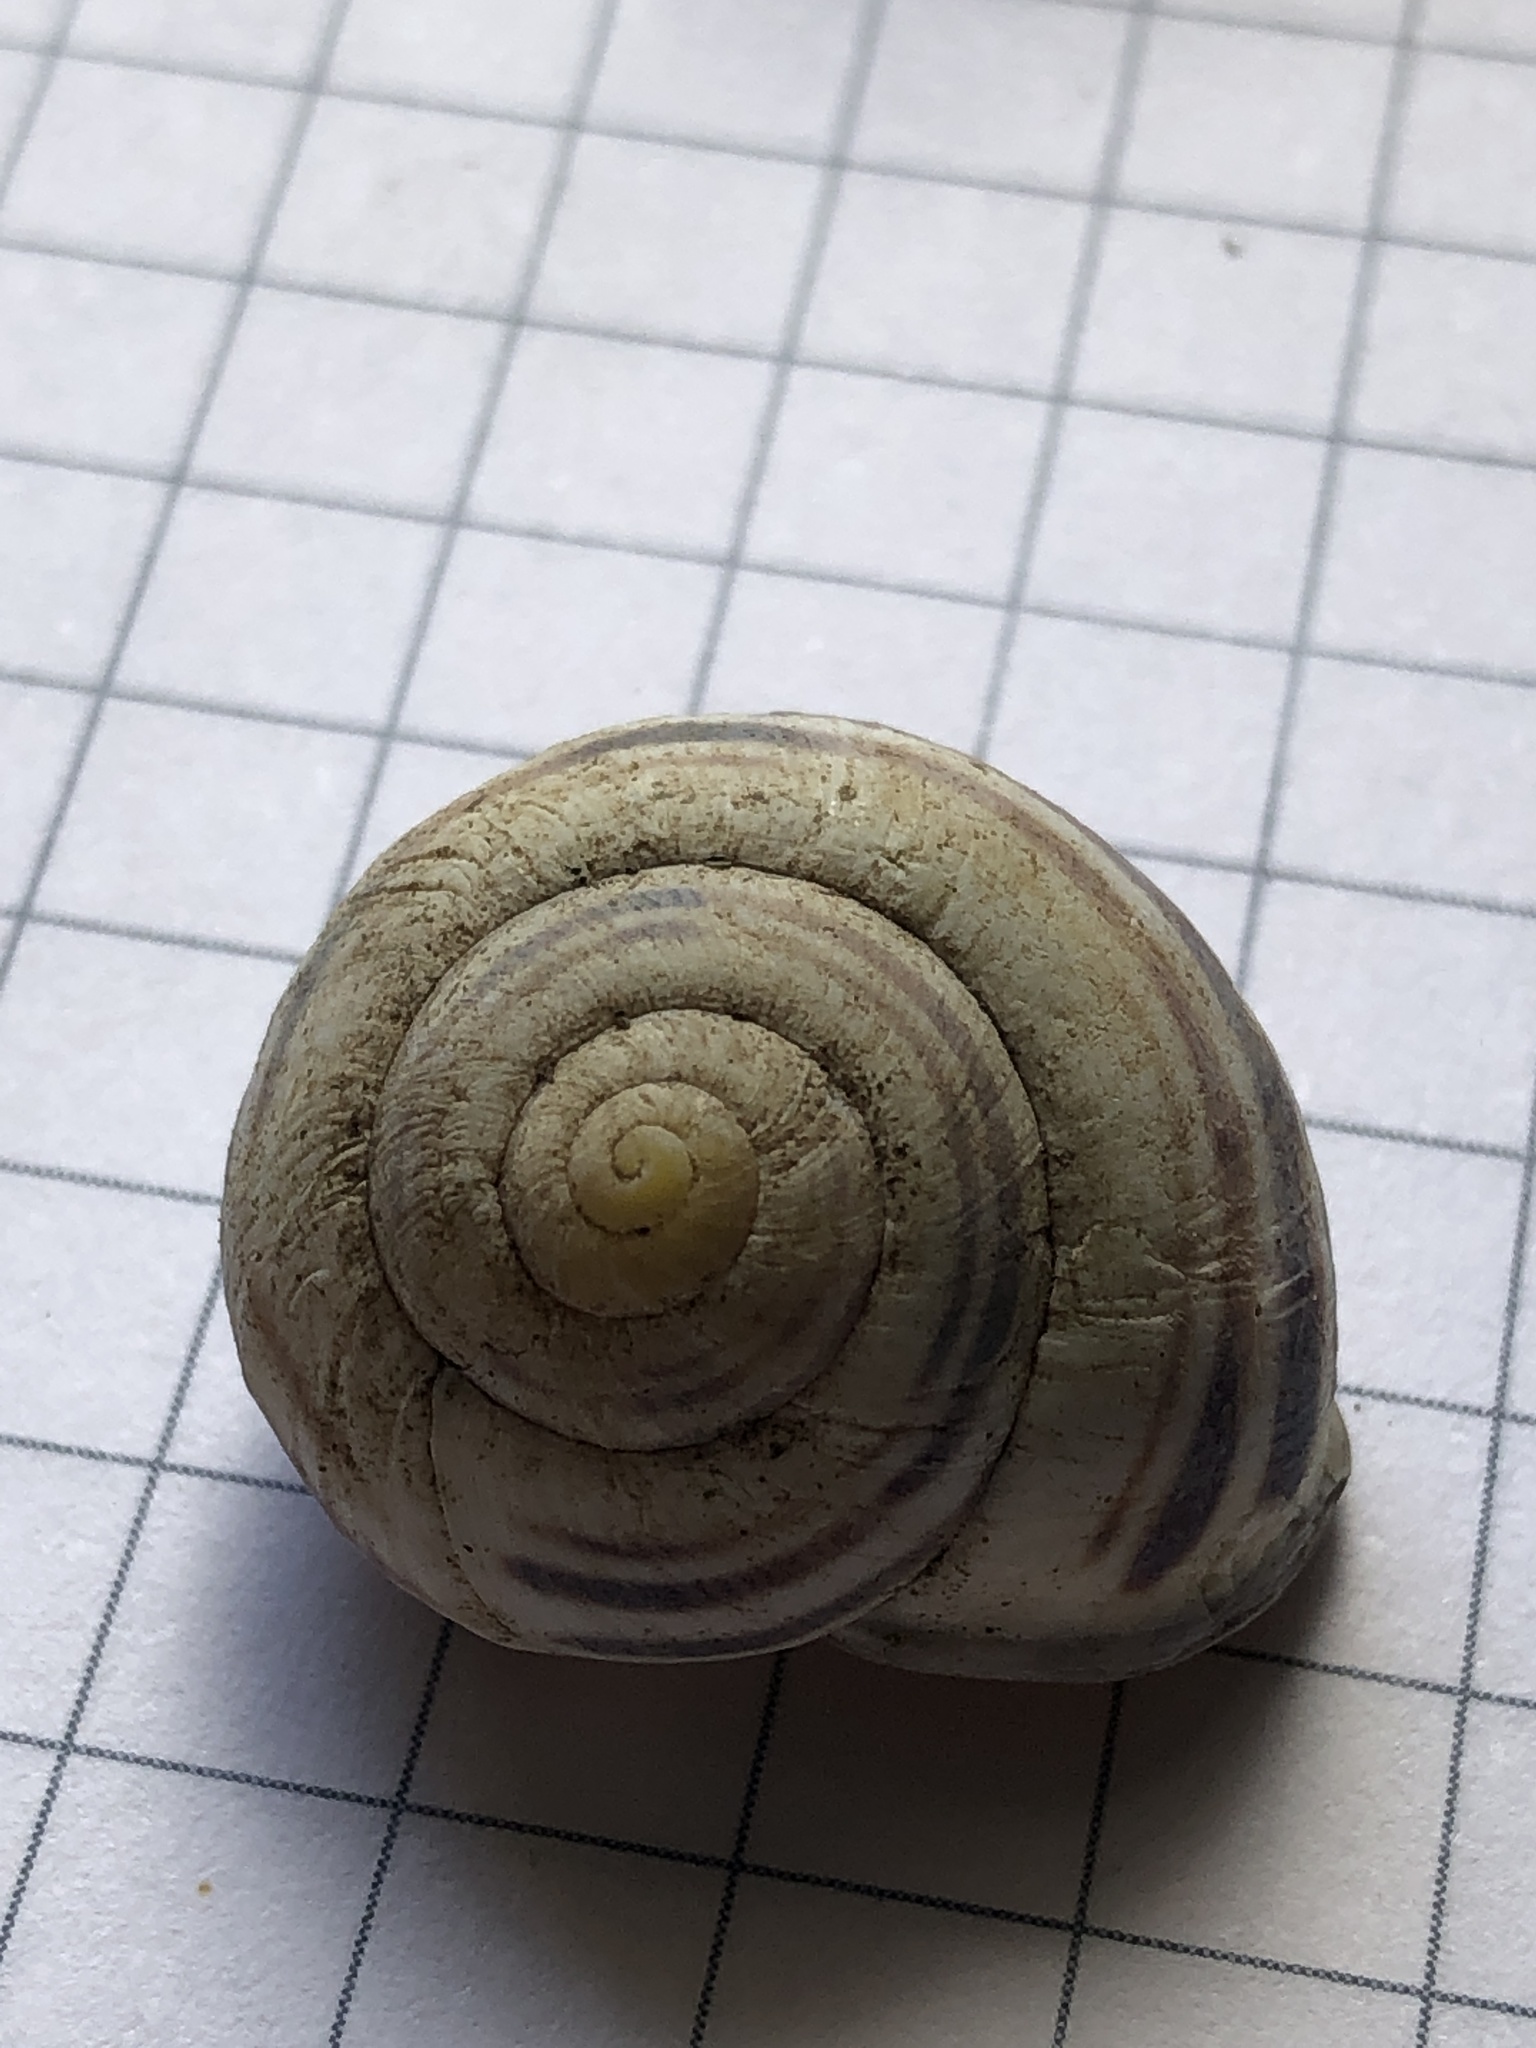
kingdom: Animalia
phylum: Mollusca
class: Gastropoda
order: Stylommatophora
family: Helicidae
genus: Cepaea
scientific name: Cepaea nemoralis
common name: Grovesnail
